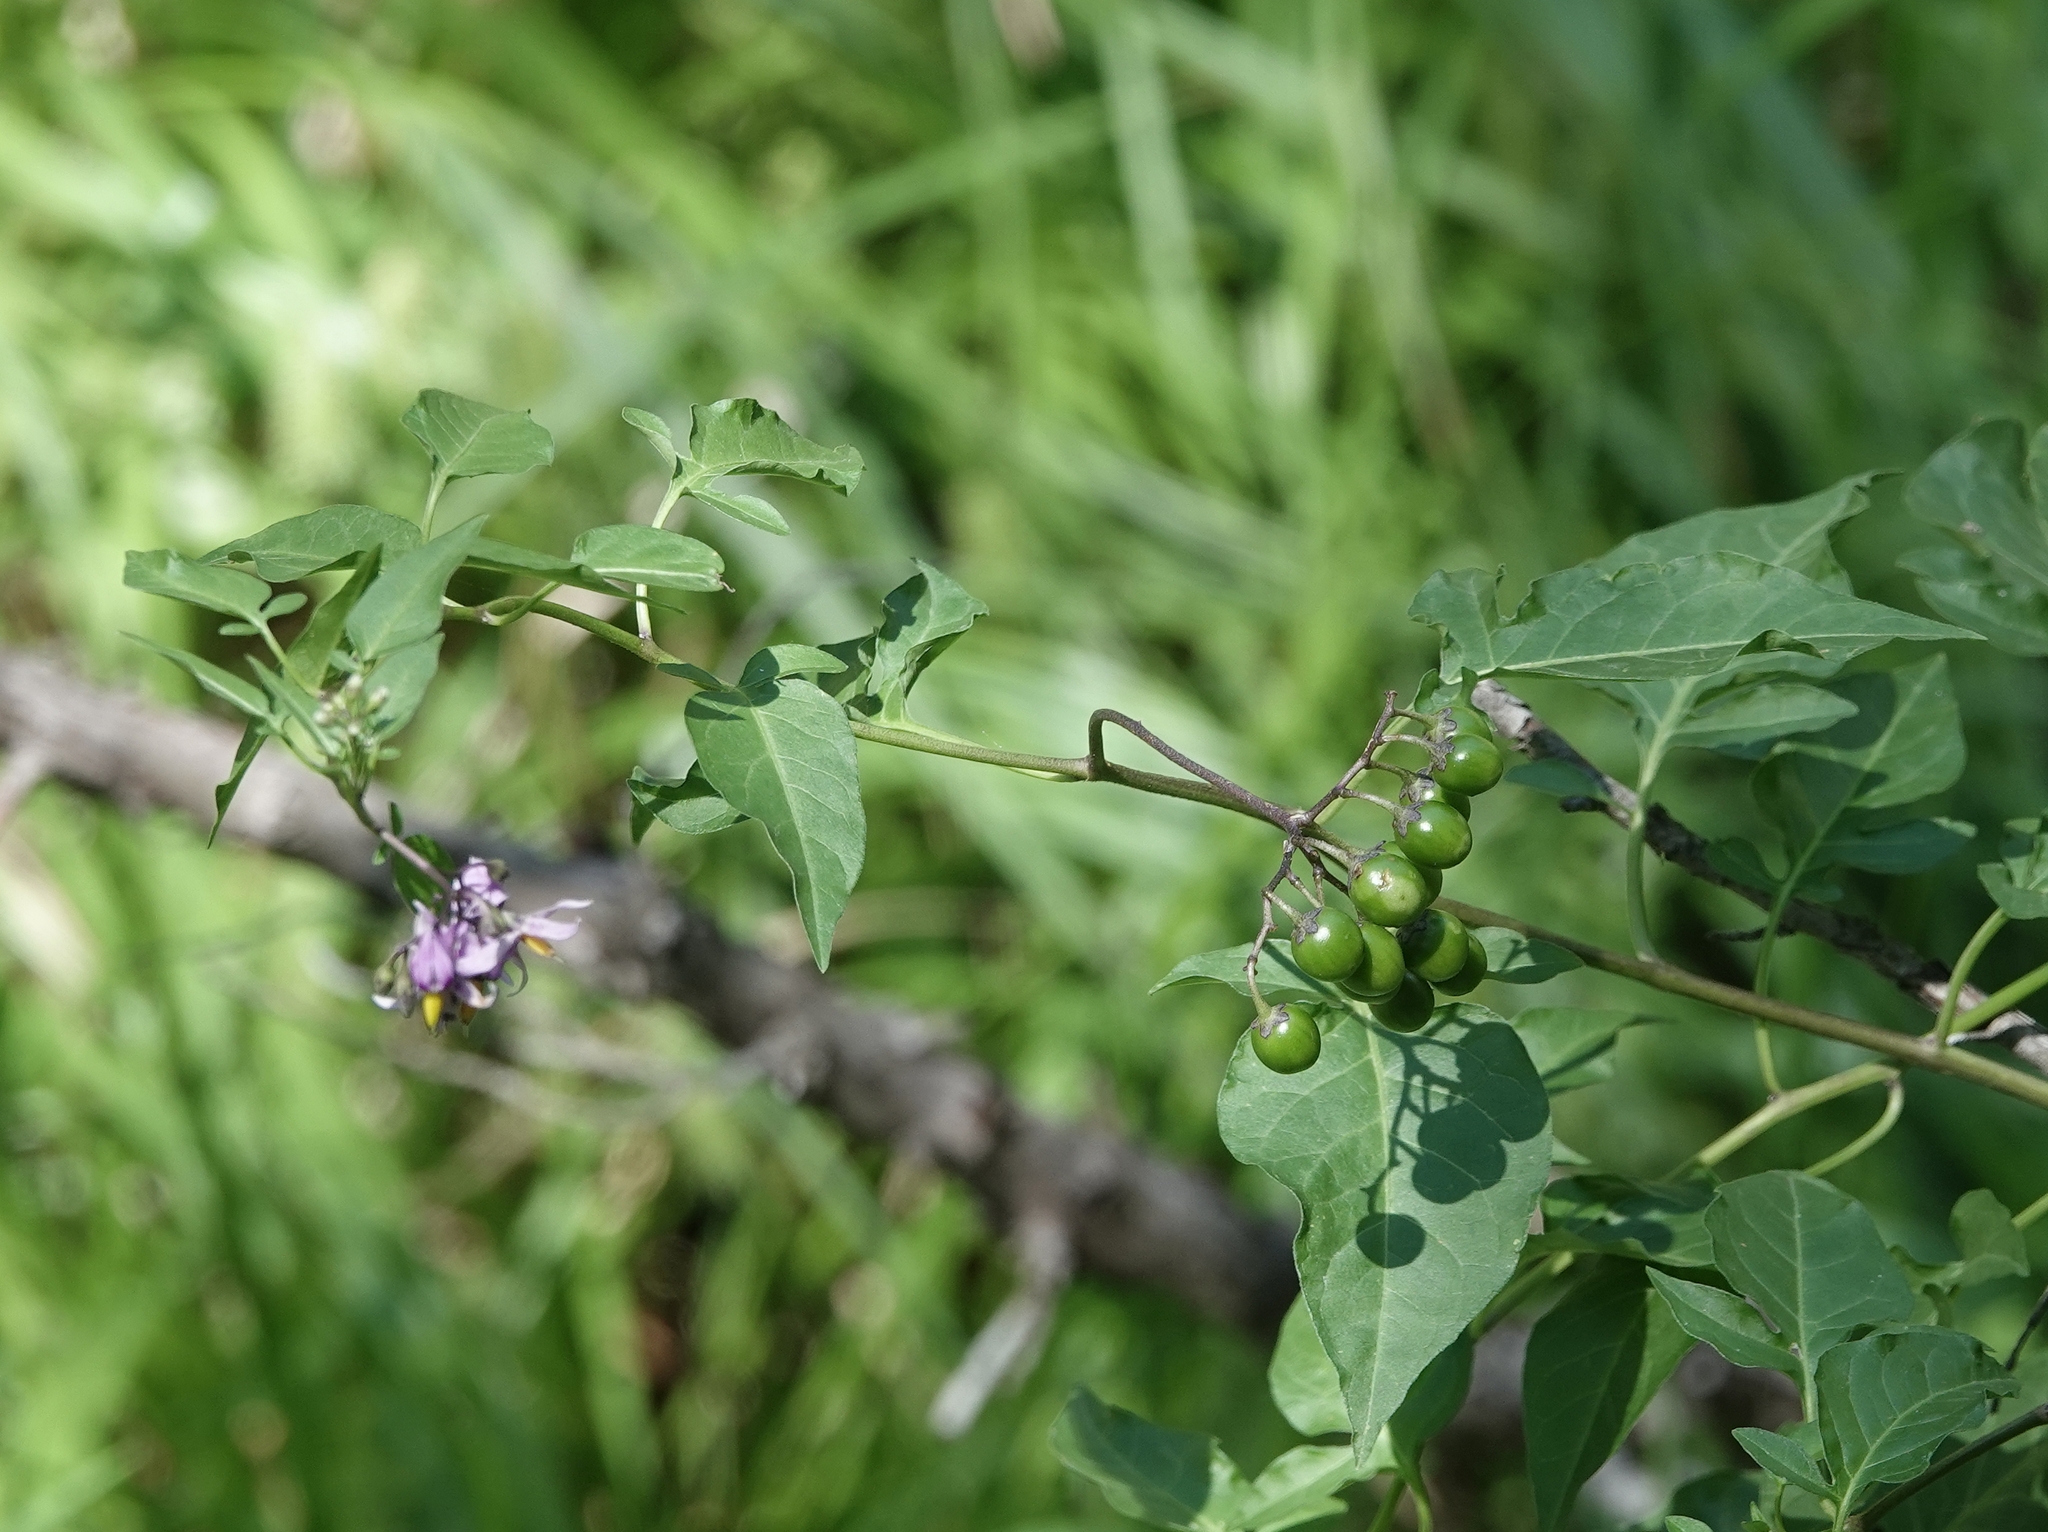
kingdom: Plantae
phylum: Tracheophyta
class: Magnoliopsida
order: Solanales
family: Solanaceae
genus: Solanum
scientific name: Solanum dulcamara
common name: Climbing nightshade
